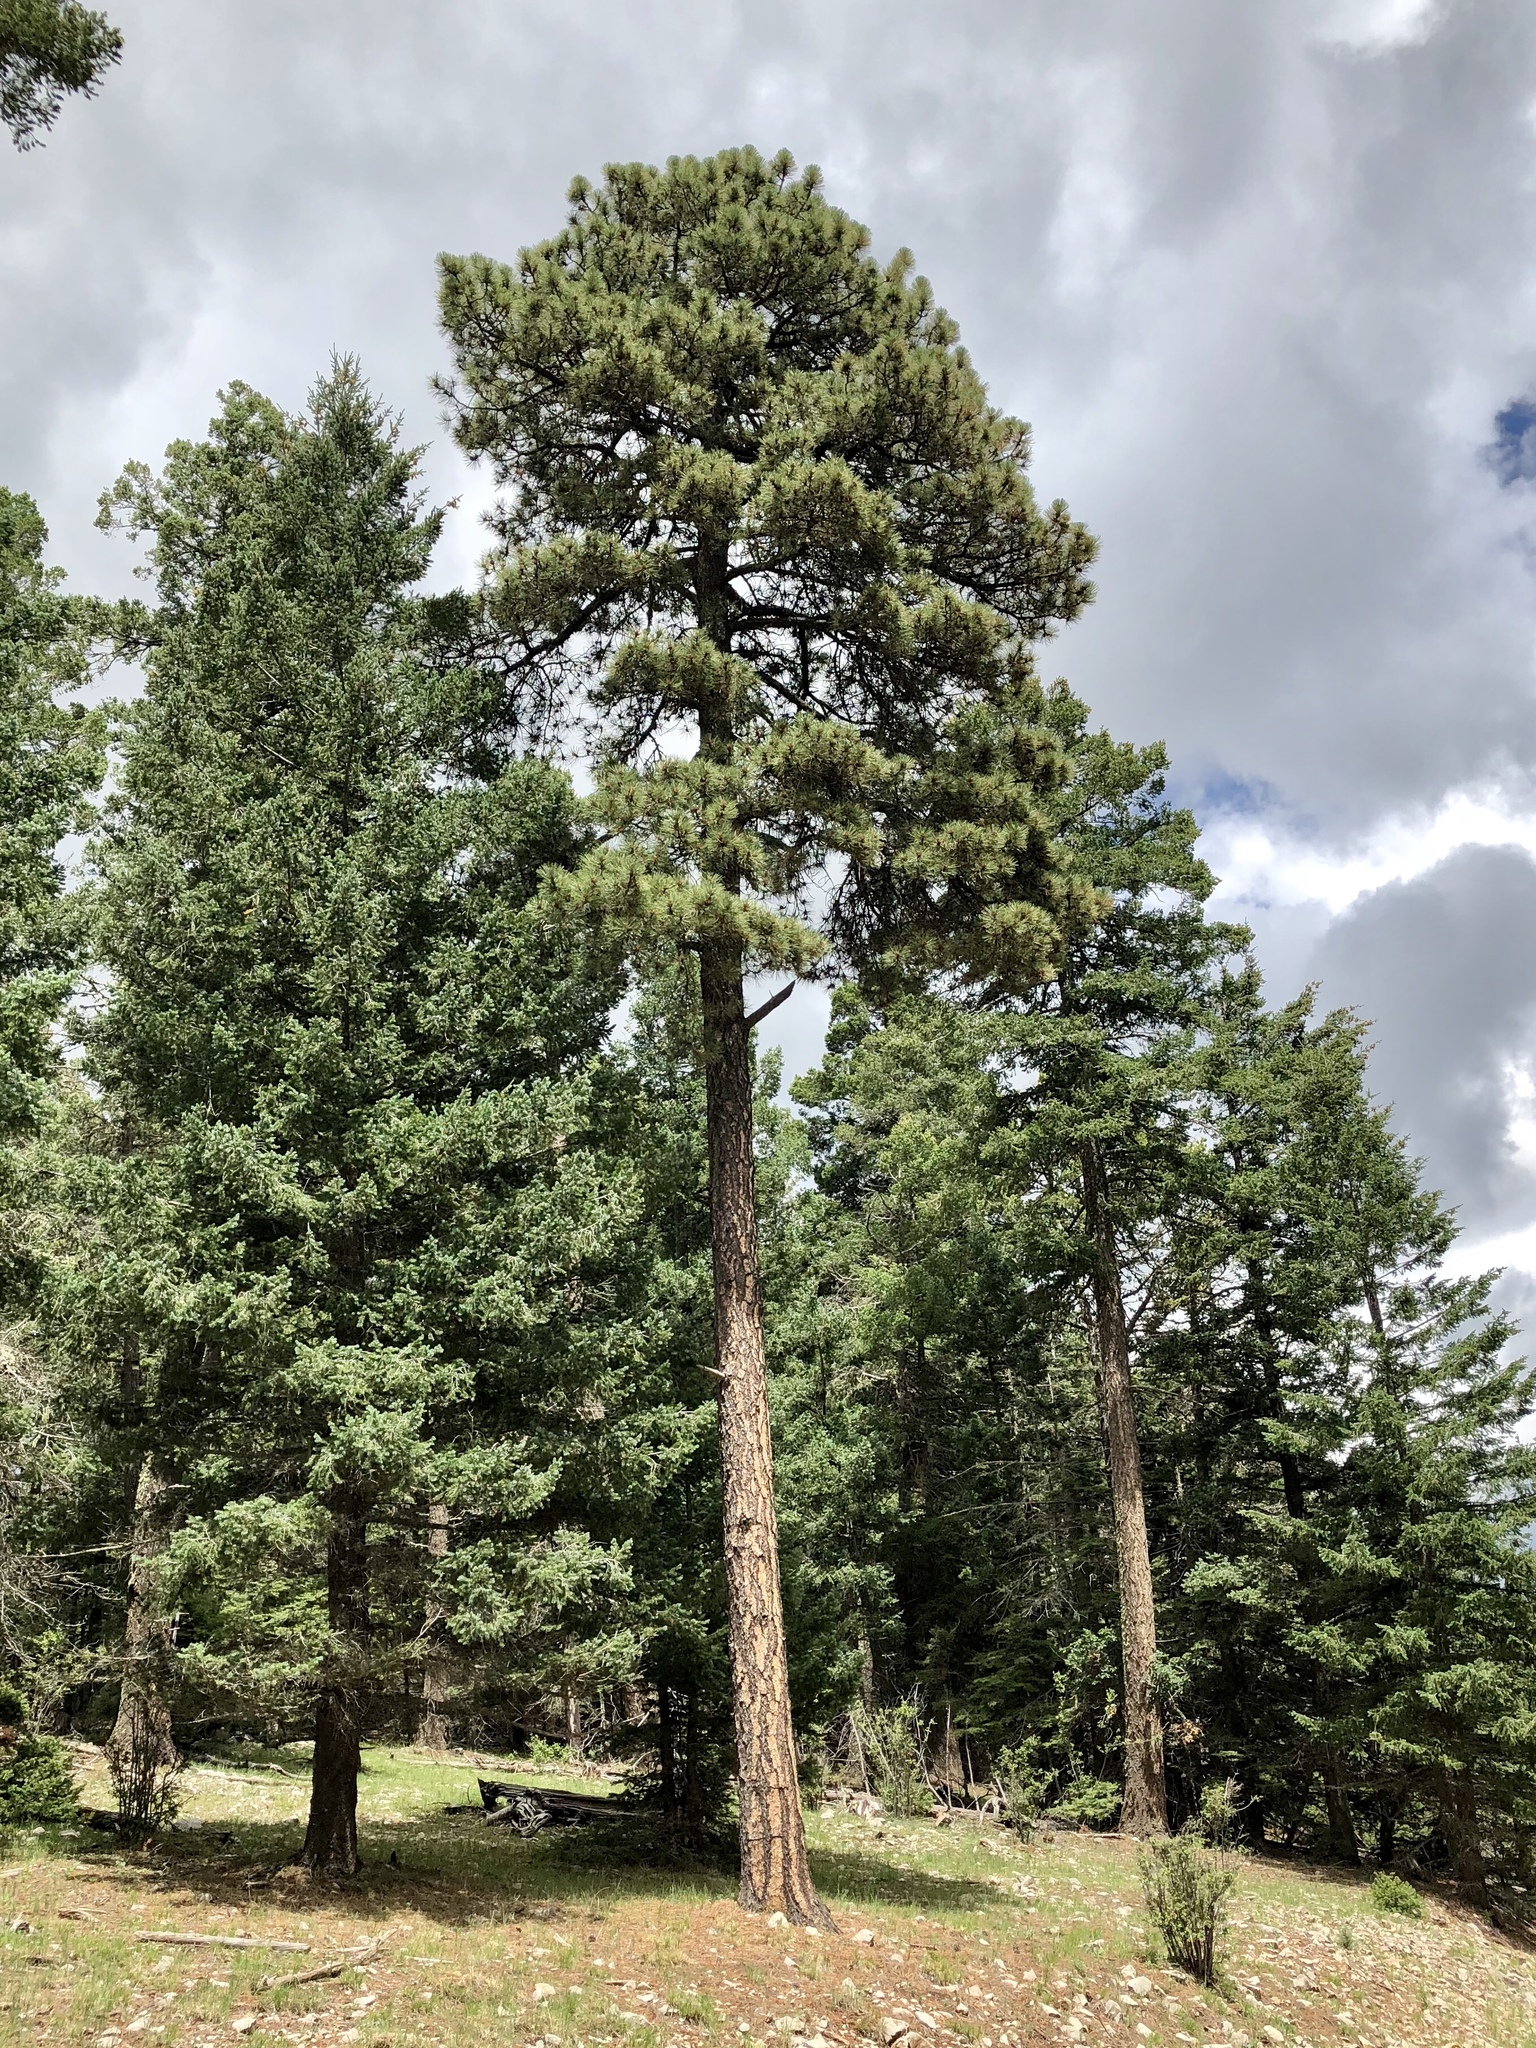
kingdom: Plantae
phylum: Tracheophyta
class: Pinopsida
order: Pinales
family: Pinaceae
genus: Pinus
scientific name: Pinus ponderosa
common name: Western yellow-pine
